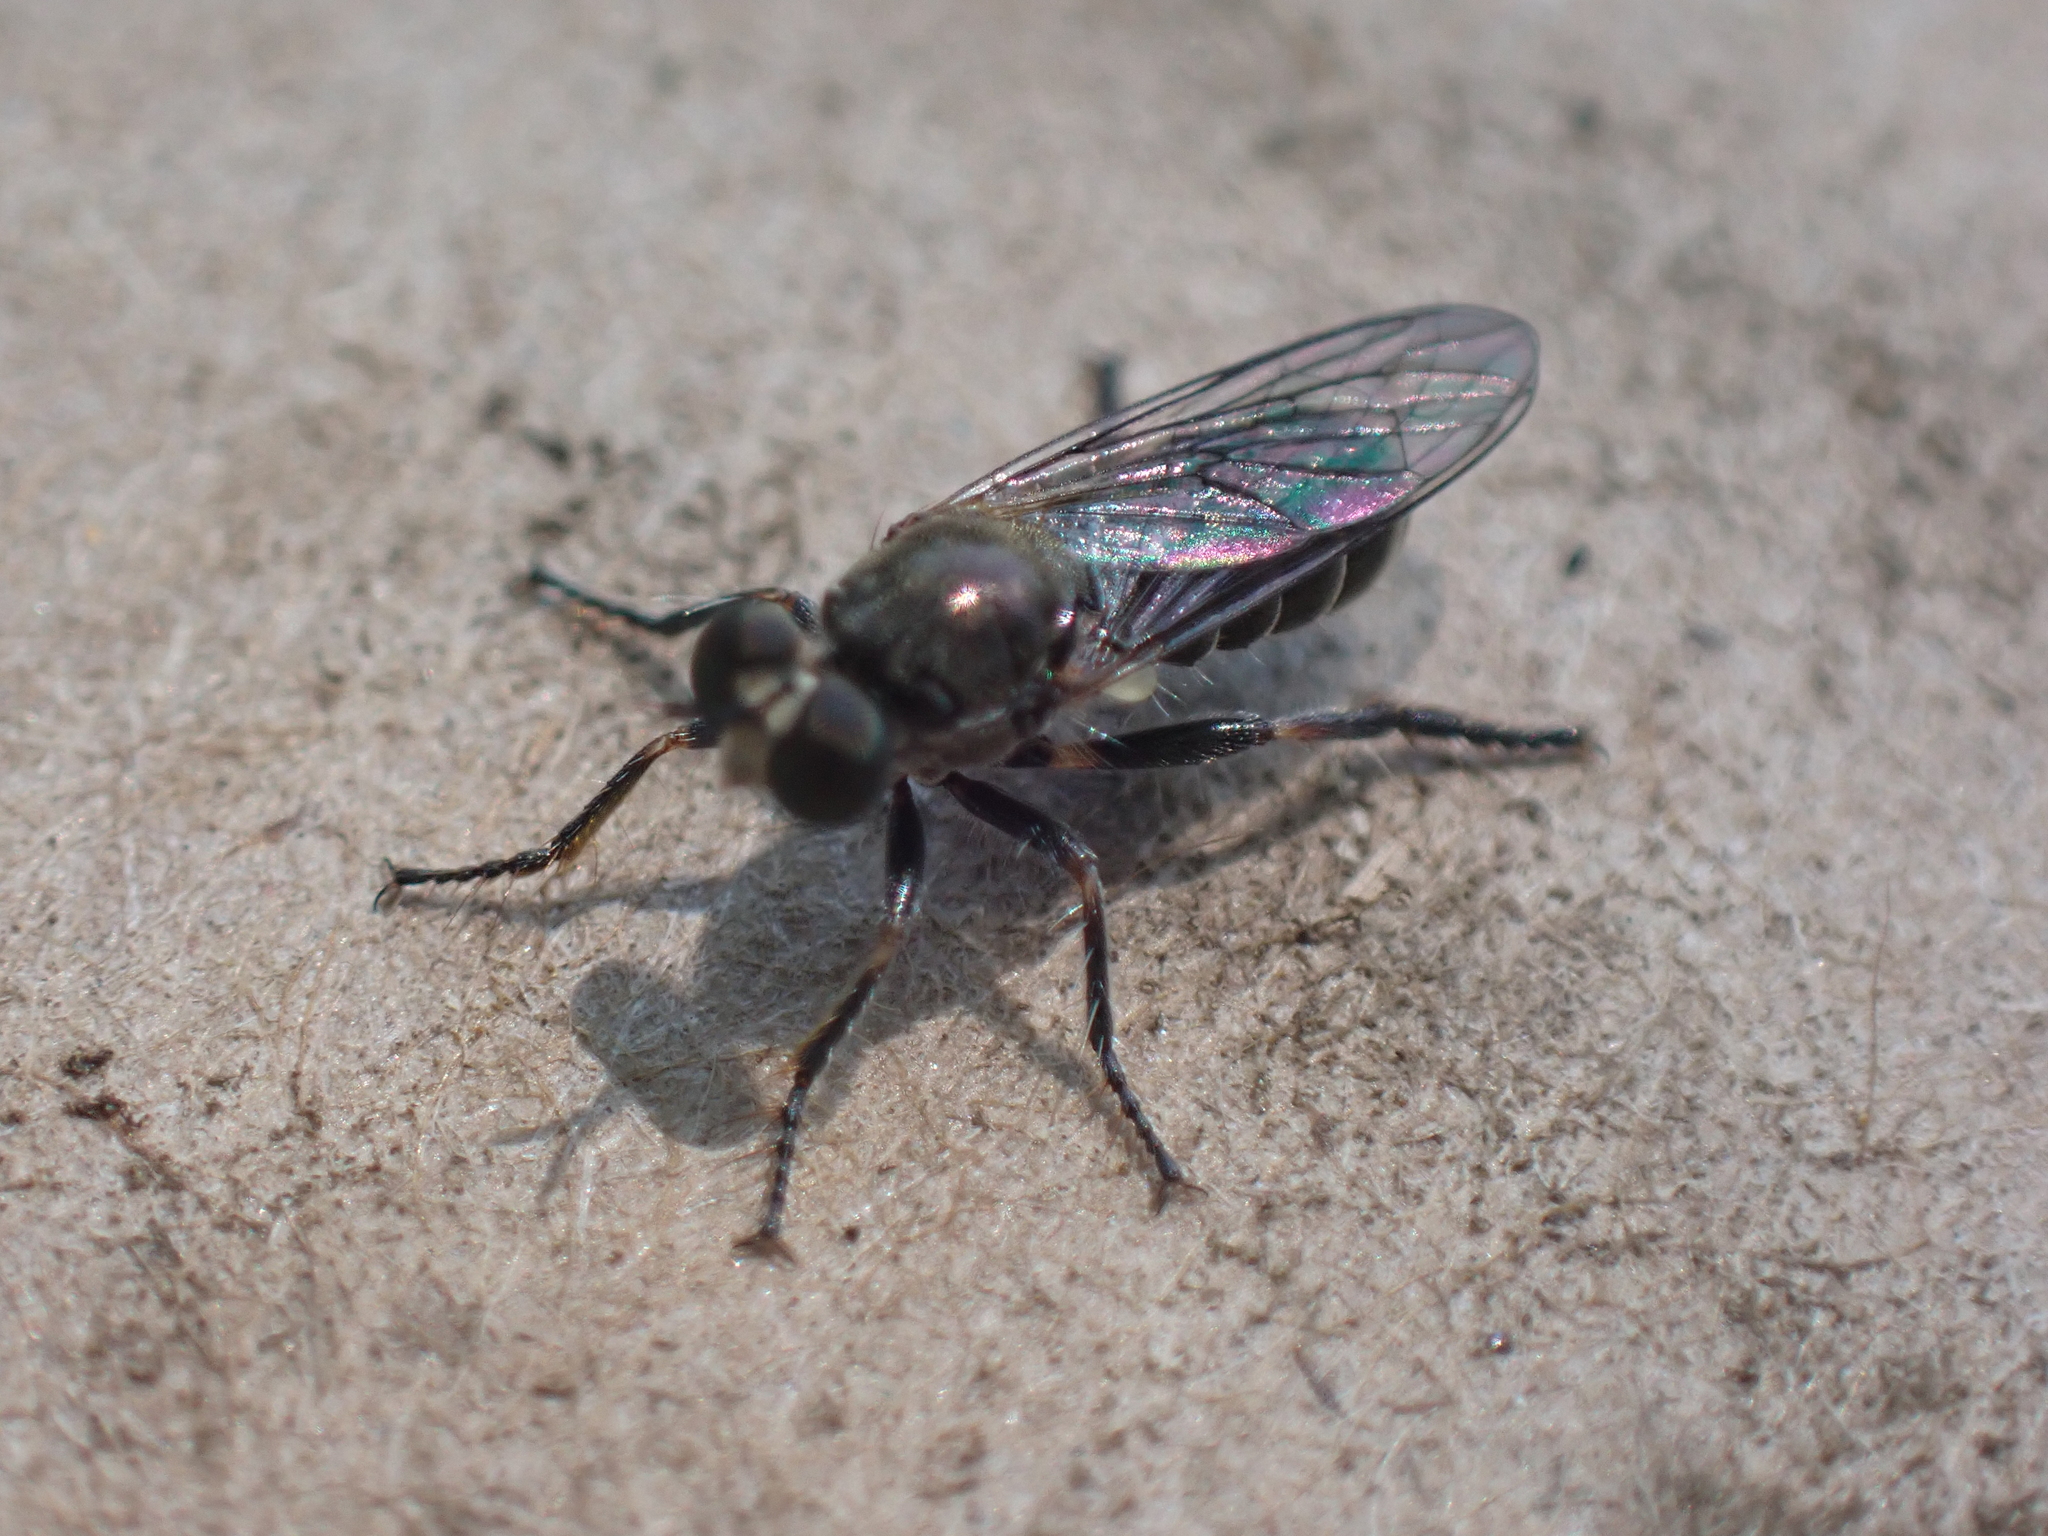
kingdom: Animalia
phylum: Arthropoda
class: Insecta
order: Diptera
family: Asilidae
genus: Atomosia
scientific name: Atomosia puella
